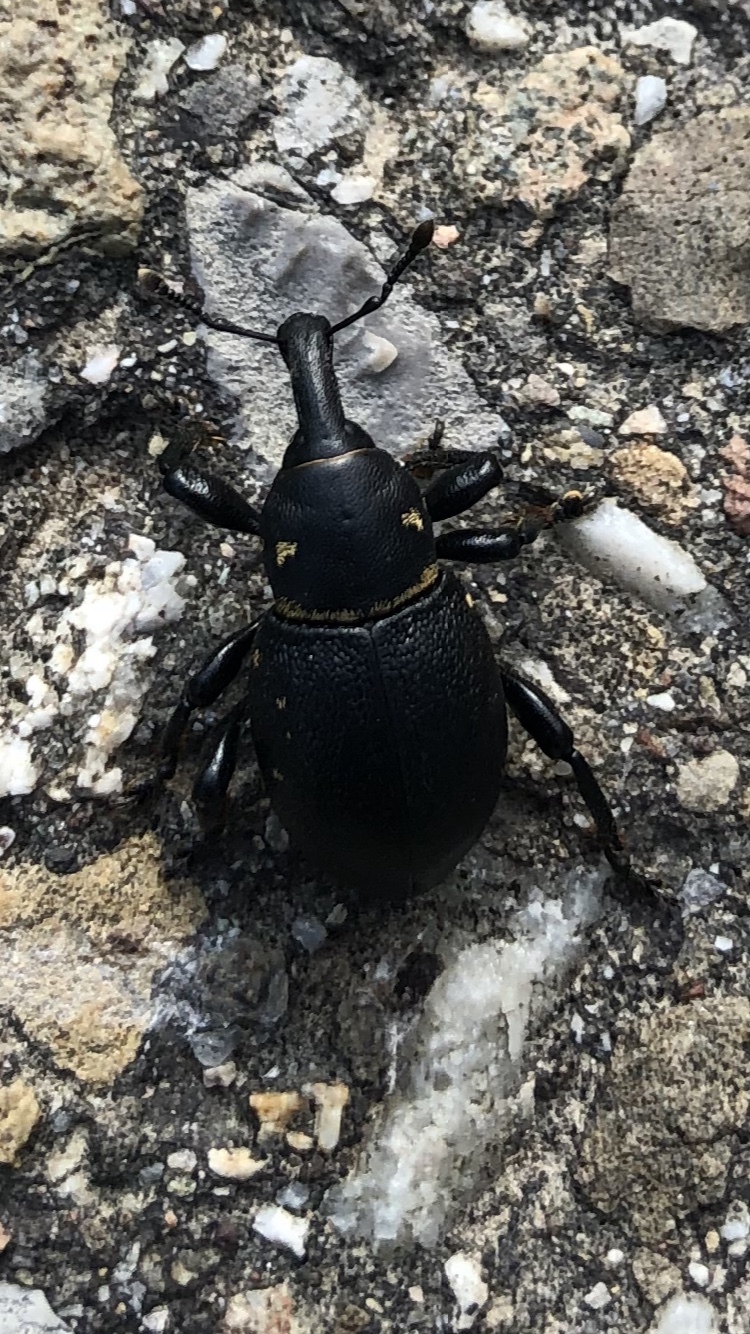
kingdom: Animalia
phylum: Arthropoda
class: Insecta
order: Coleoptera
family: Curculionidae
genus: Liparus
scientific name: Liparus coronatus
